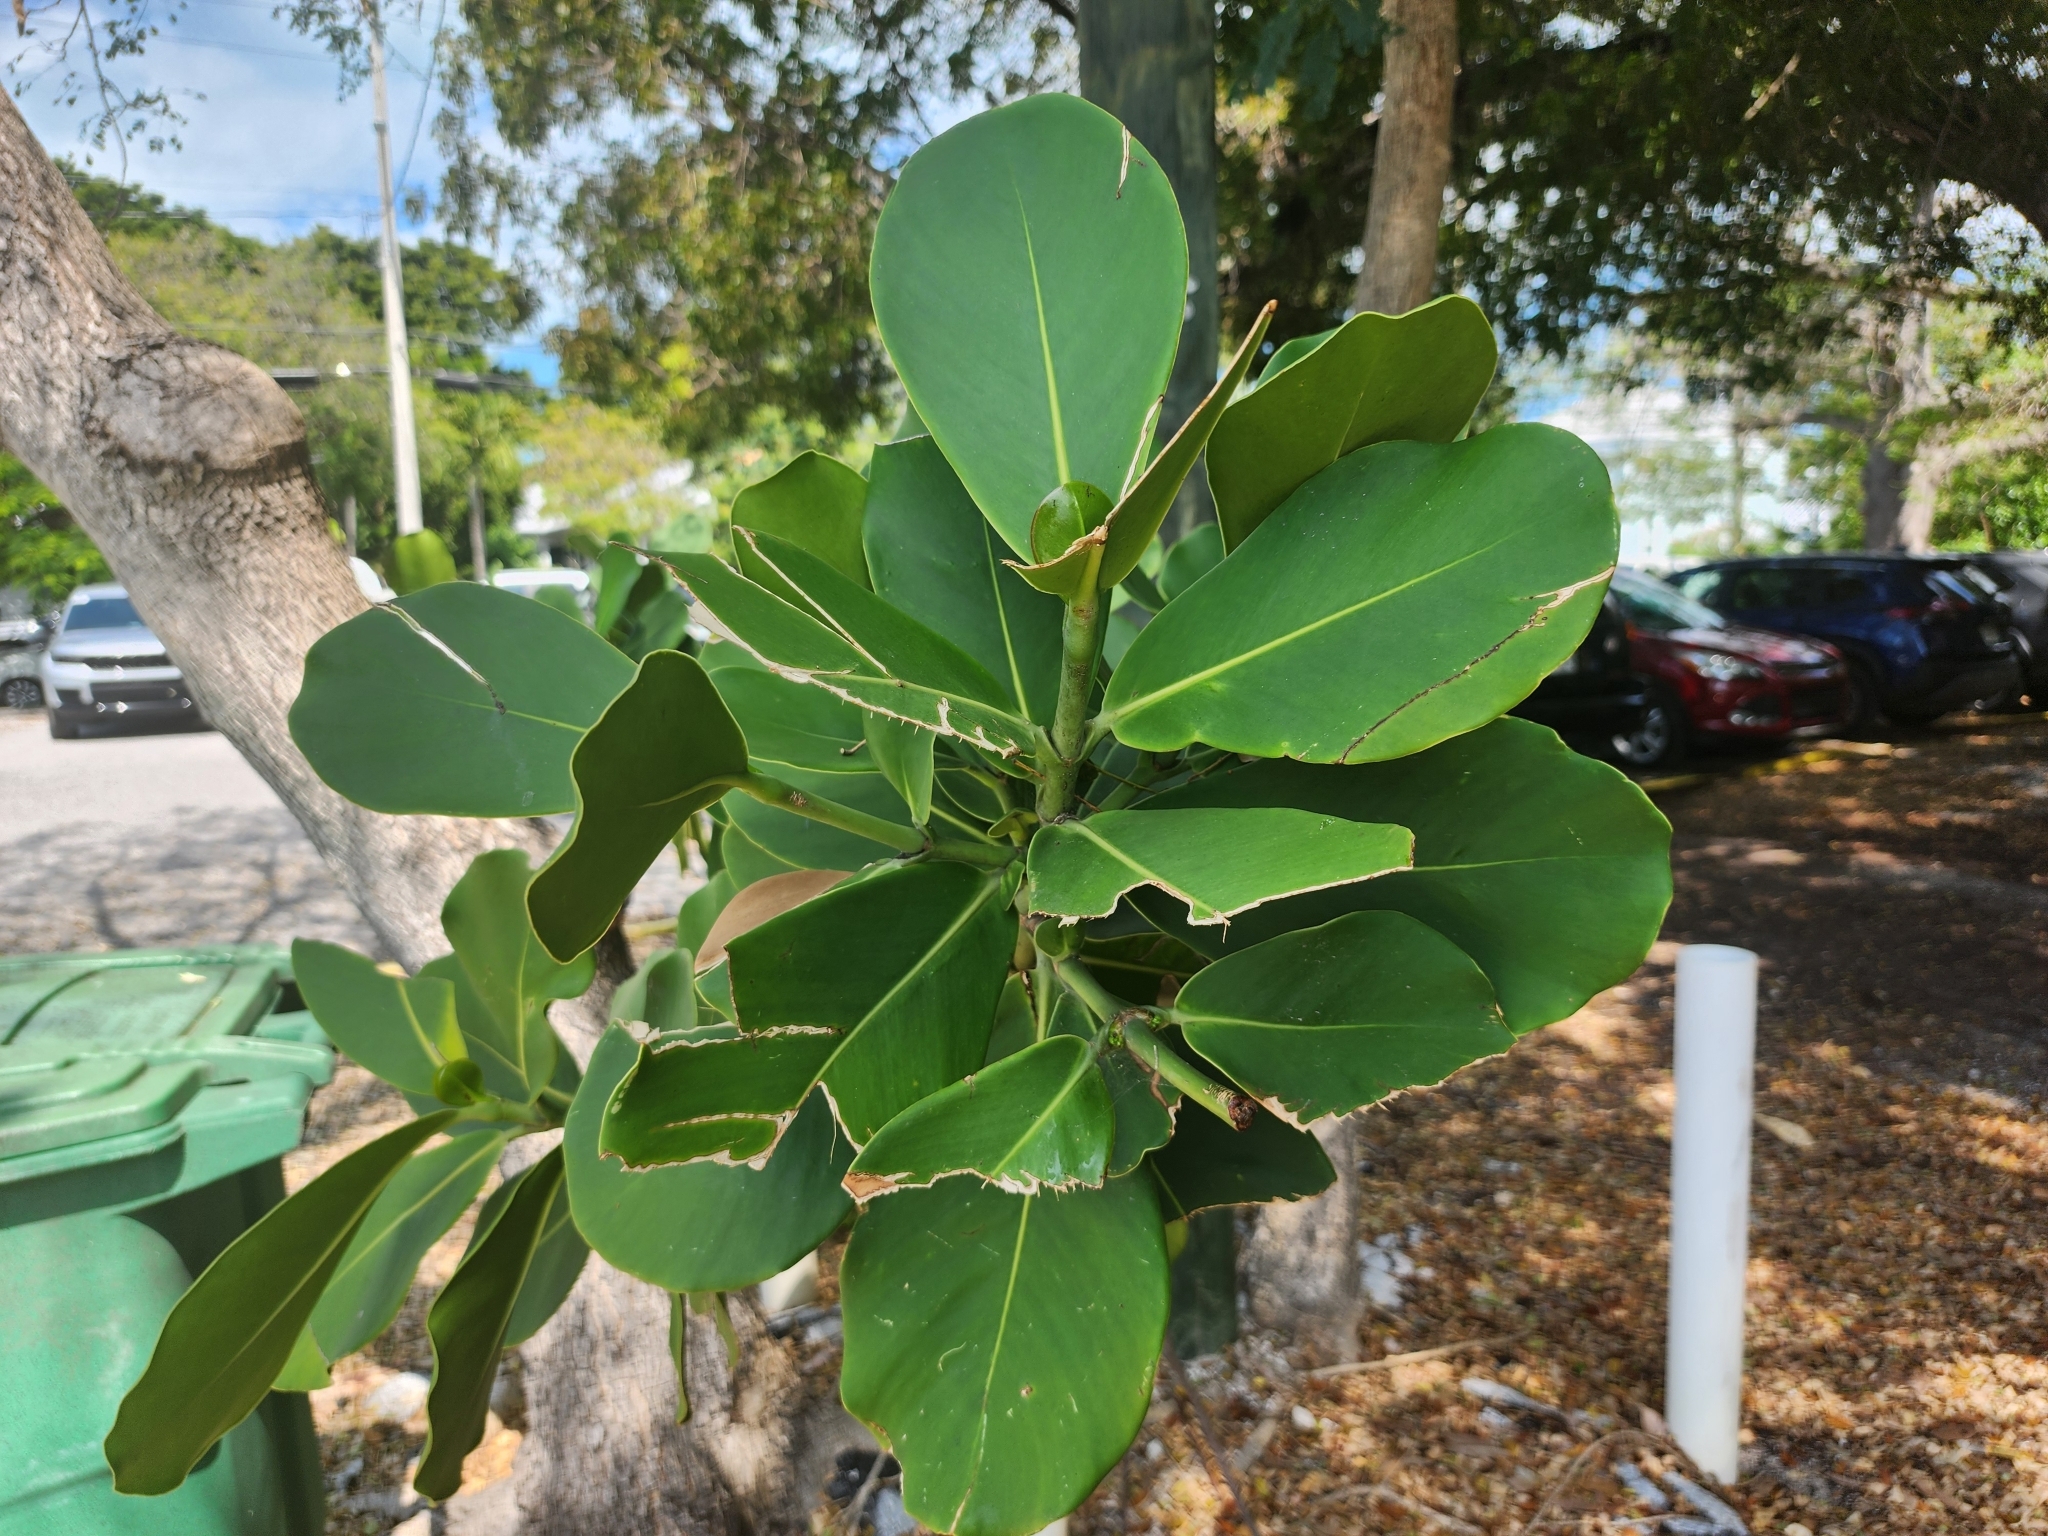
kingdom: Plantae
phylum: Tracheophyta
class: Magnoliopsida
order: Malpighiales
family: Clusiaceae
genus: Clusia
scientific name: Clusia rosea
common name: Scotch attorney
